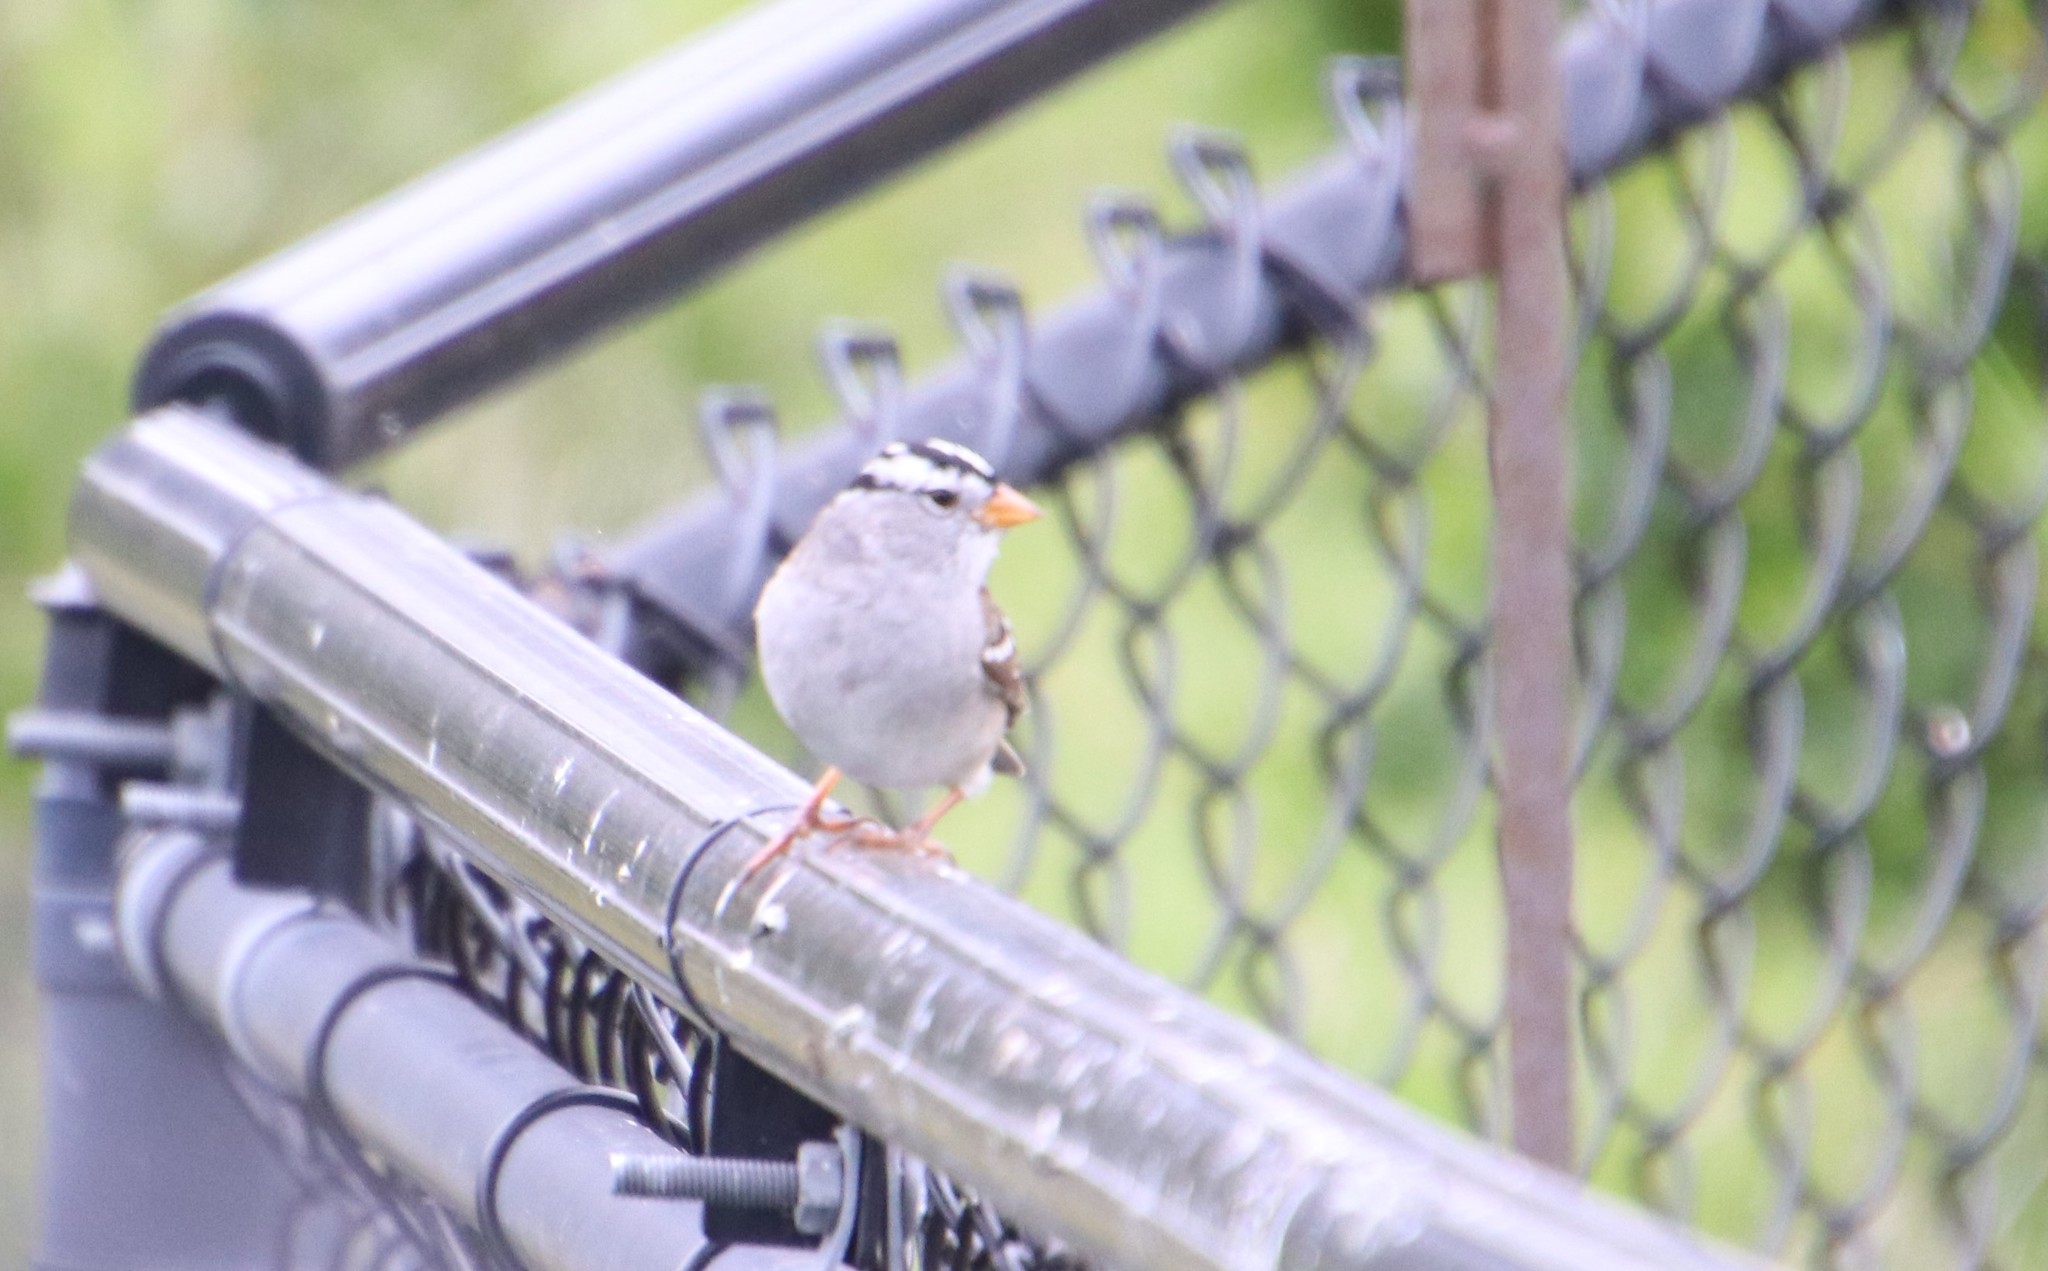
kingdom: Animalia
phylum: Chordata
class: Aves
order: Passeriformes
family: Passerellidae
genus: Zonotrichia
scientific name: Zonotrichia leucophrys
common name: White-crowned sparrow
